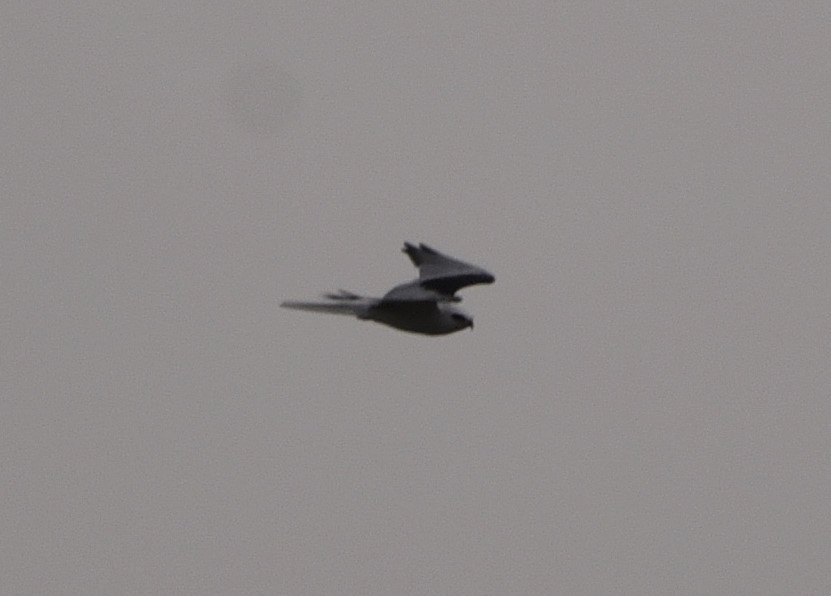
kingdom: Animalia
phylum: Chordata
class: Aves
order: Accipitriformes
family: Accipitridae
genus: Elanus
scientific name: Elanus leucurus
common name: White-tailed kite
